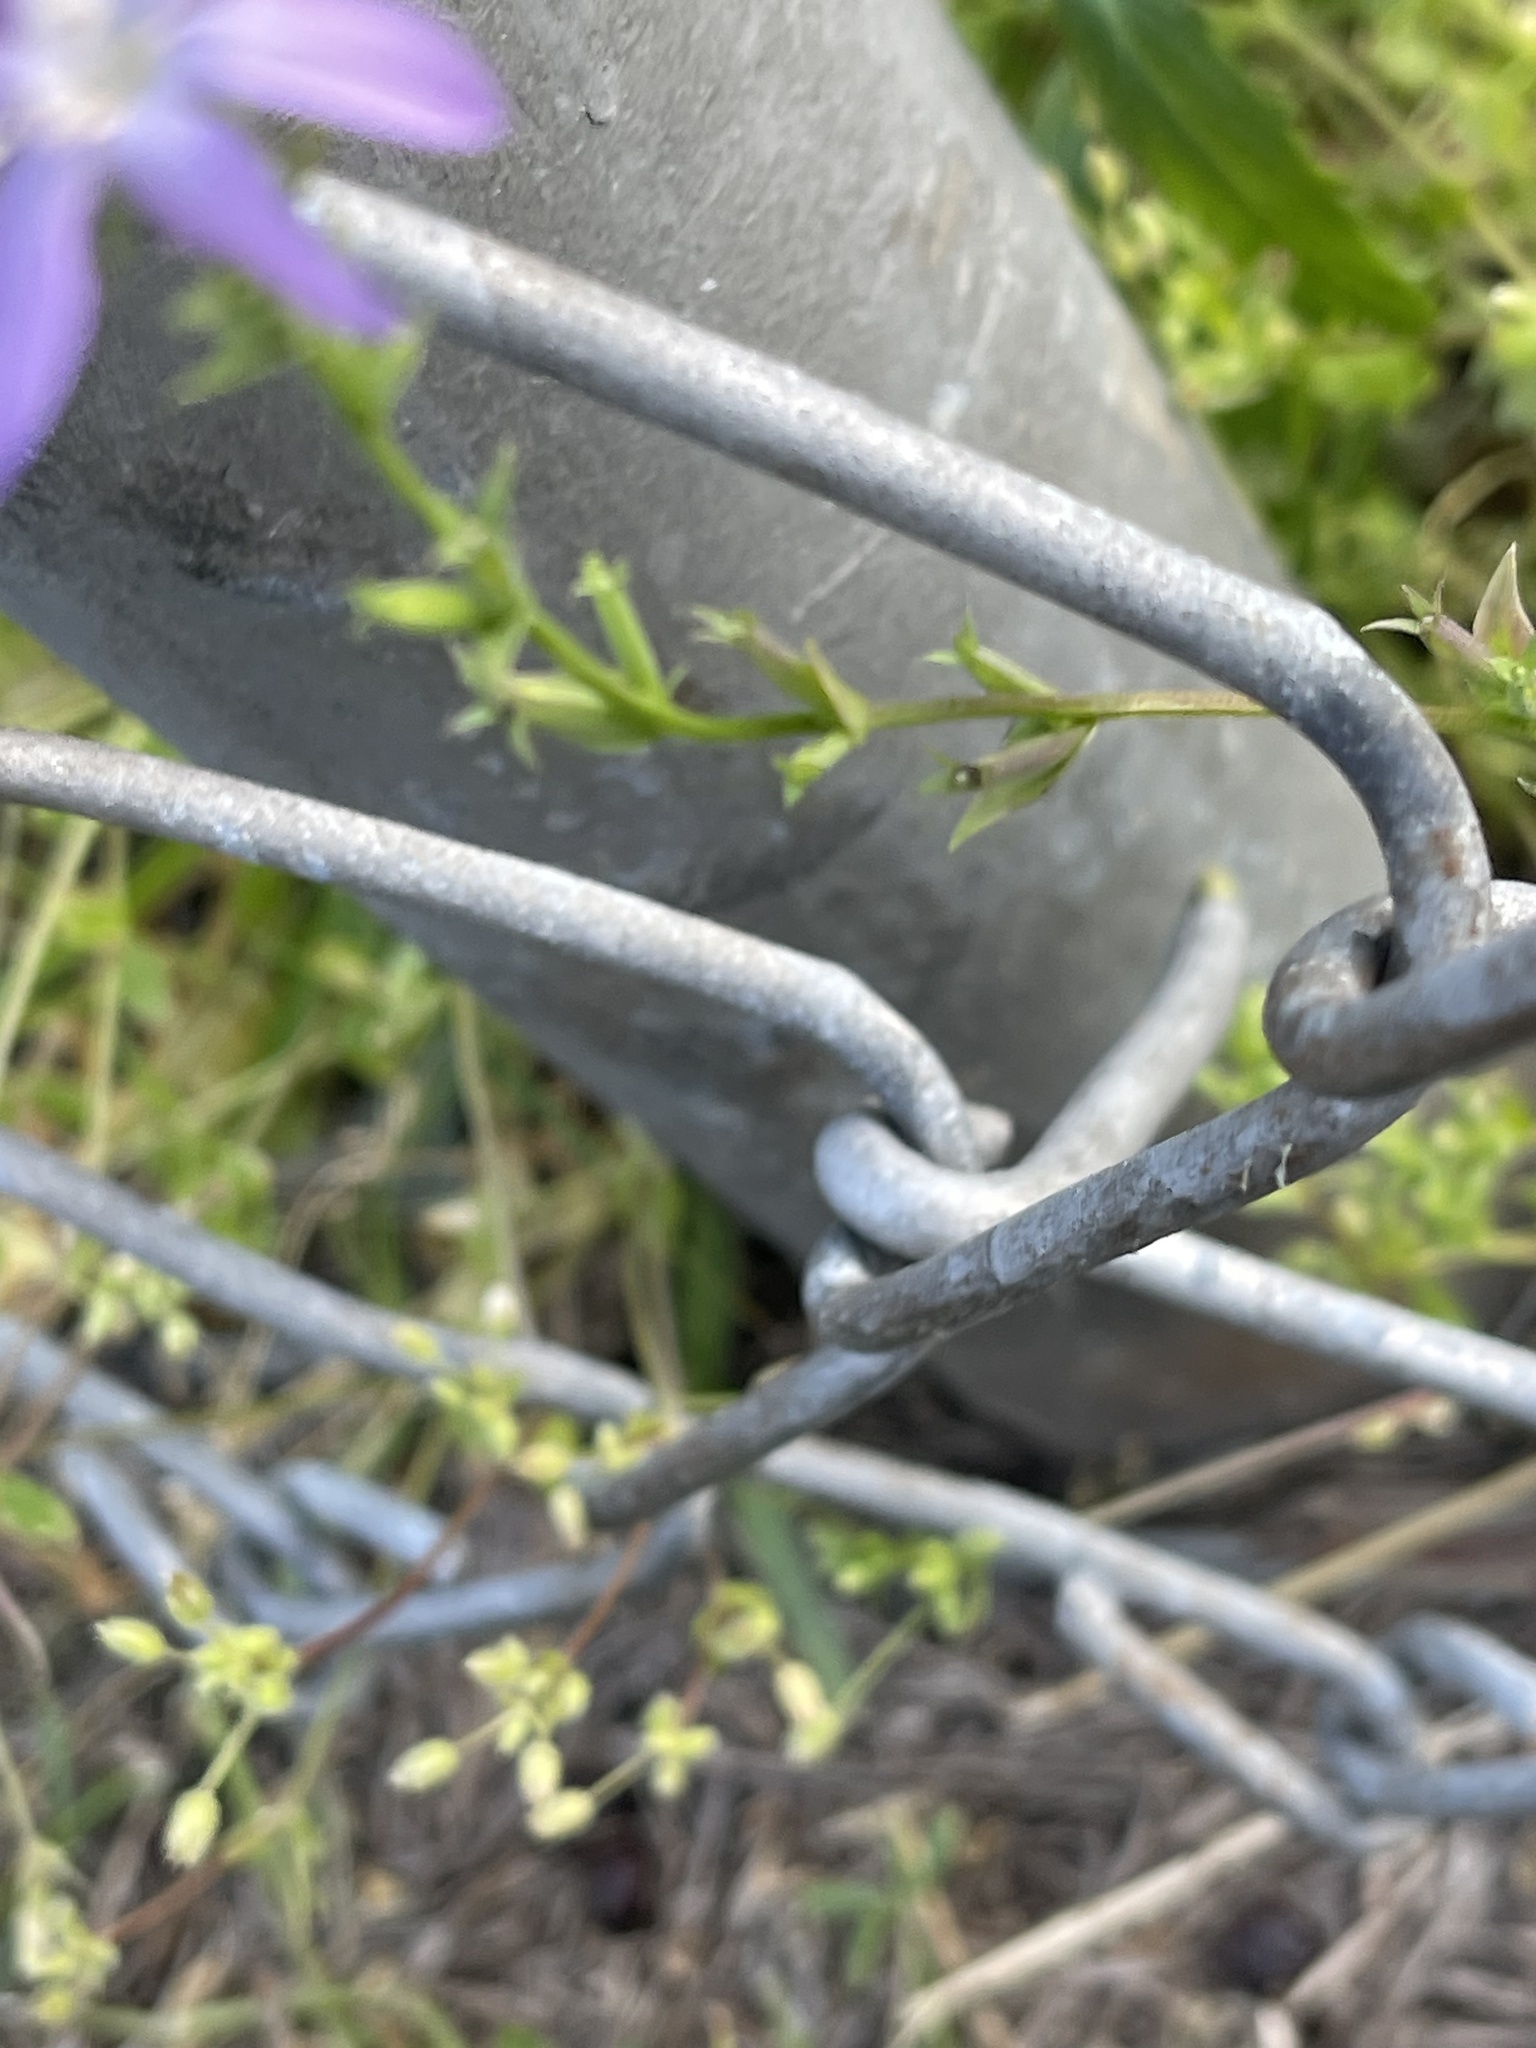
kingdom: Plantae
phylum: Tracheophyta
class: Magnoliopsida
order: Asterales
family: Campanulaceae
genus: Triodanis
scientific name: Triodanis biflora
